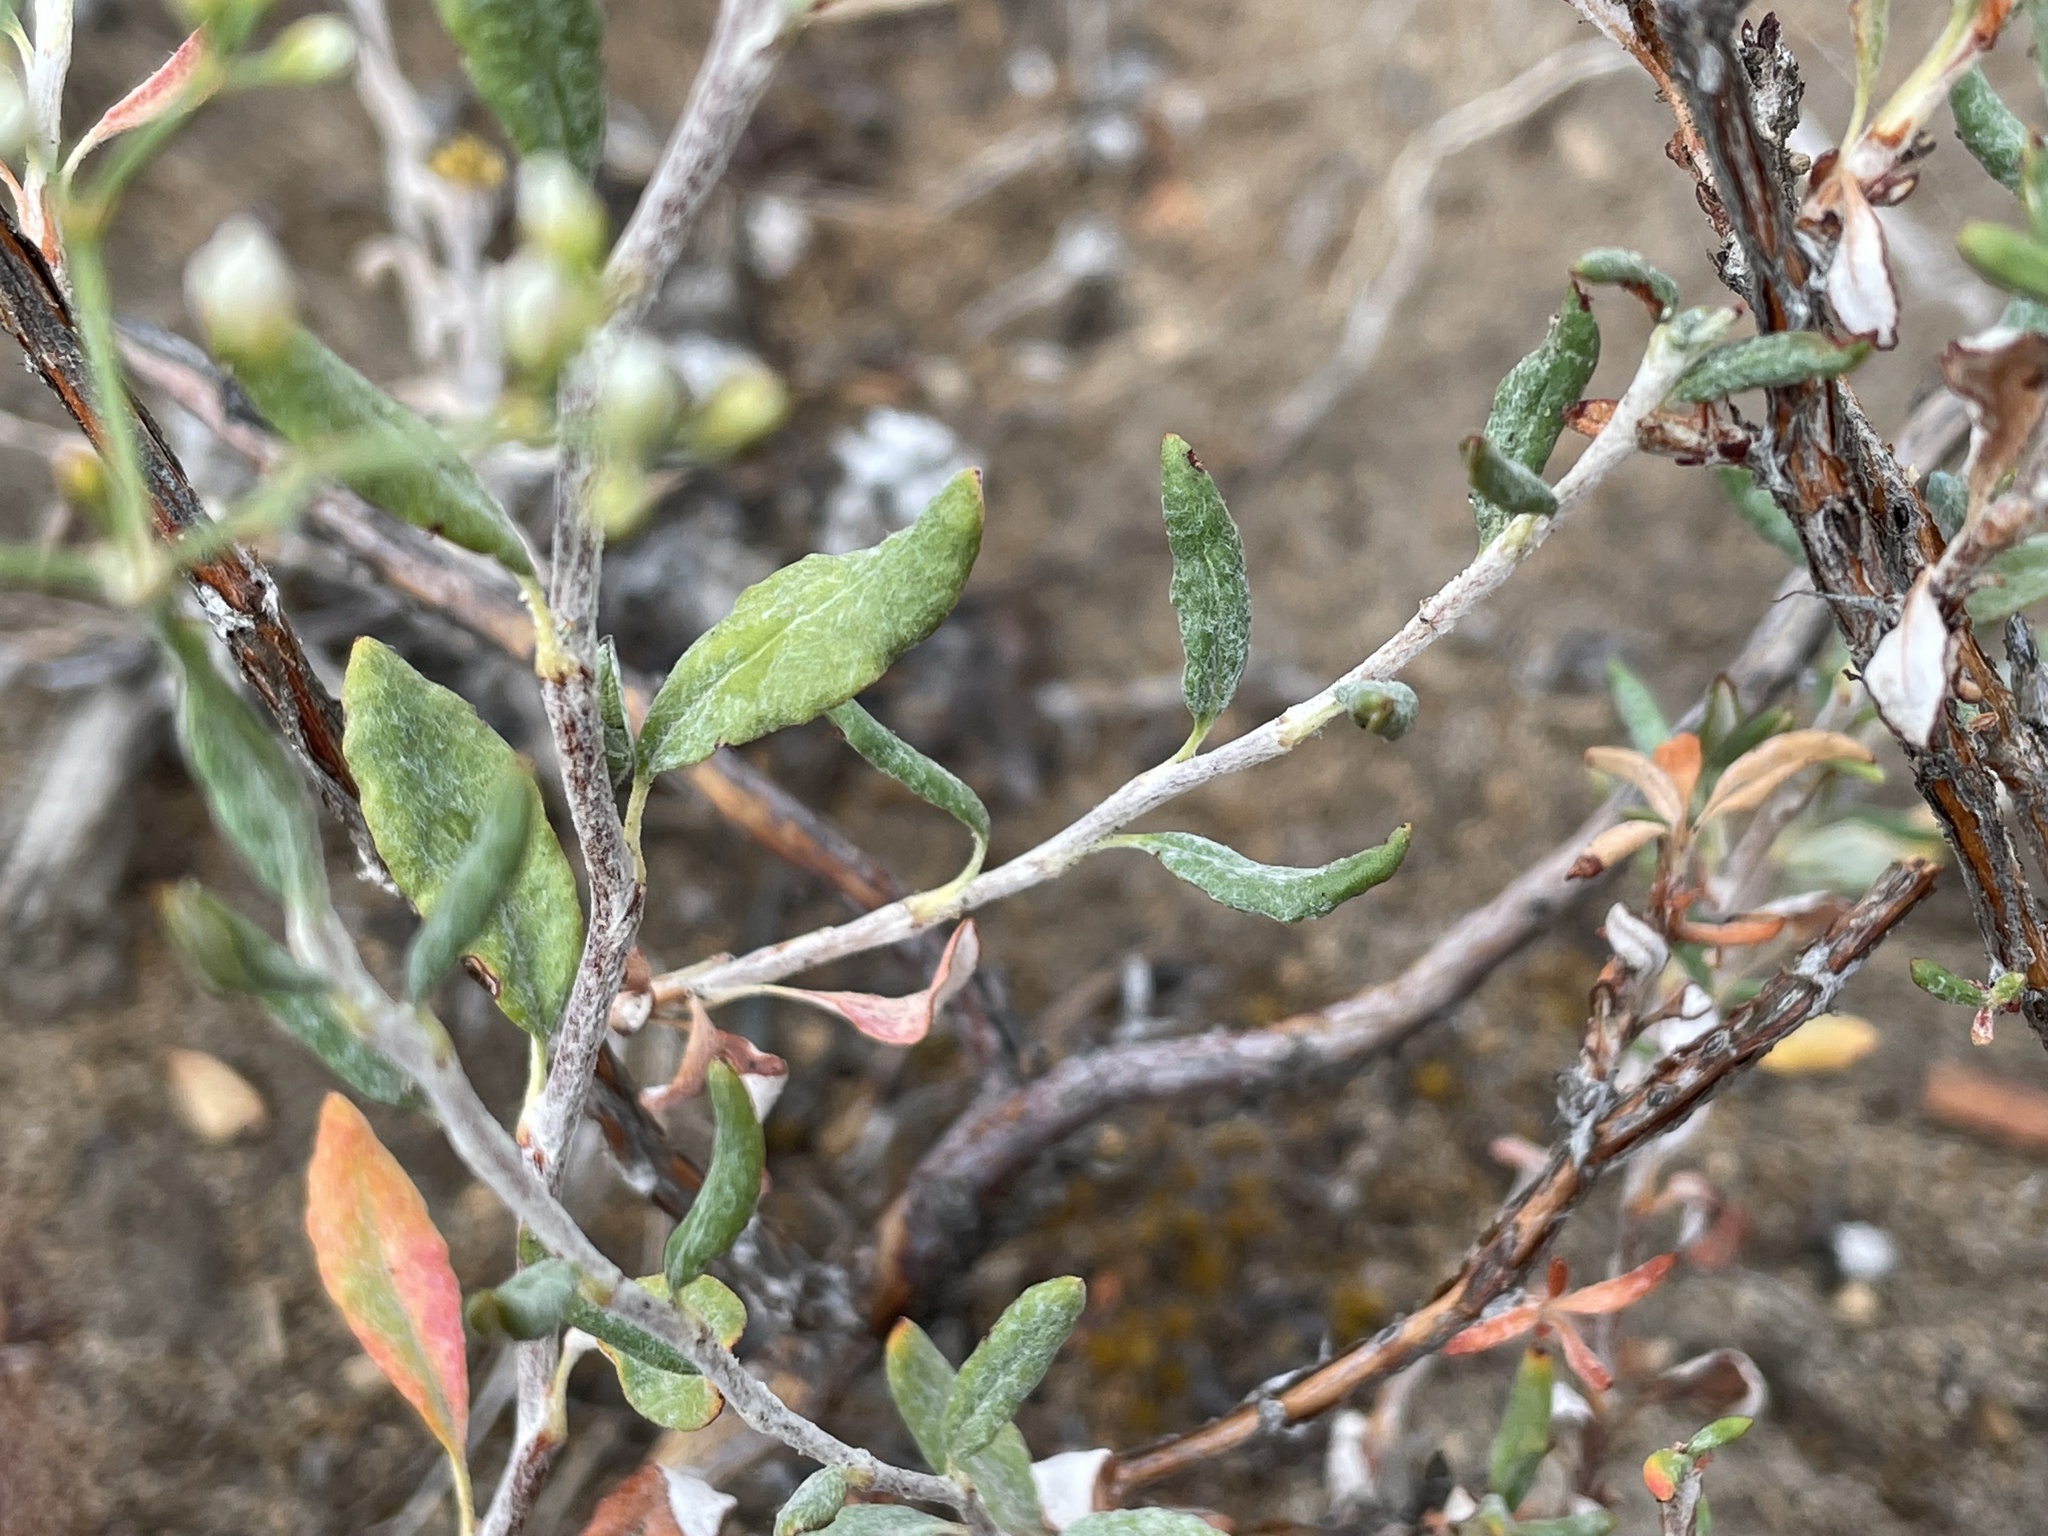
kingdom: Plantae
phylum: Tracheophyta
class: Magnoliopsida
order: Caryophyllales
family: Polygonaceae
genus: Eriogonum
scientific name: Eriogonum microtheca
